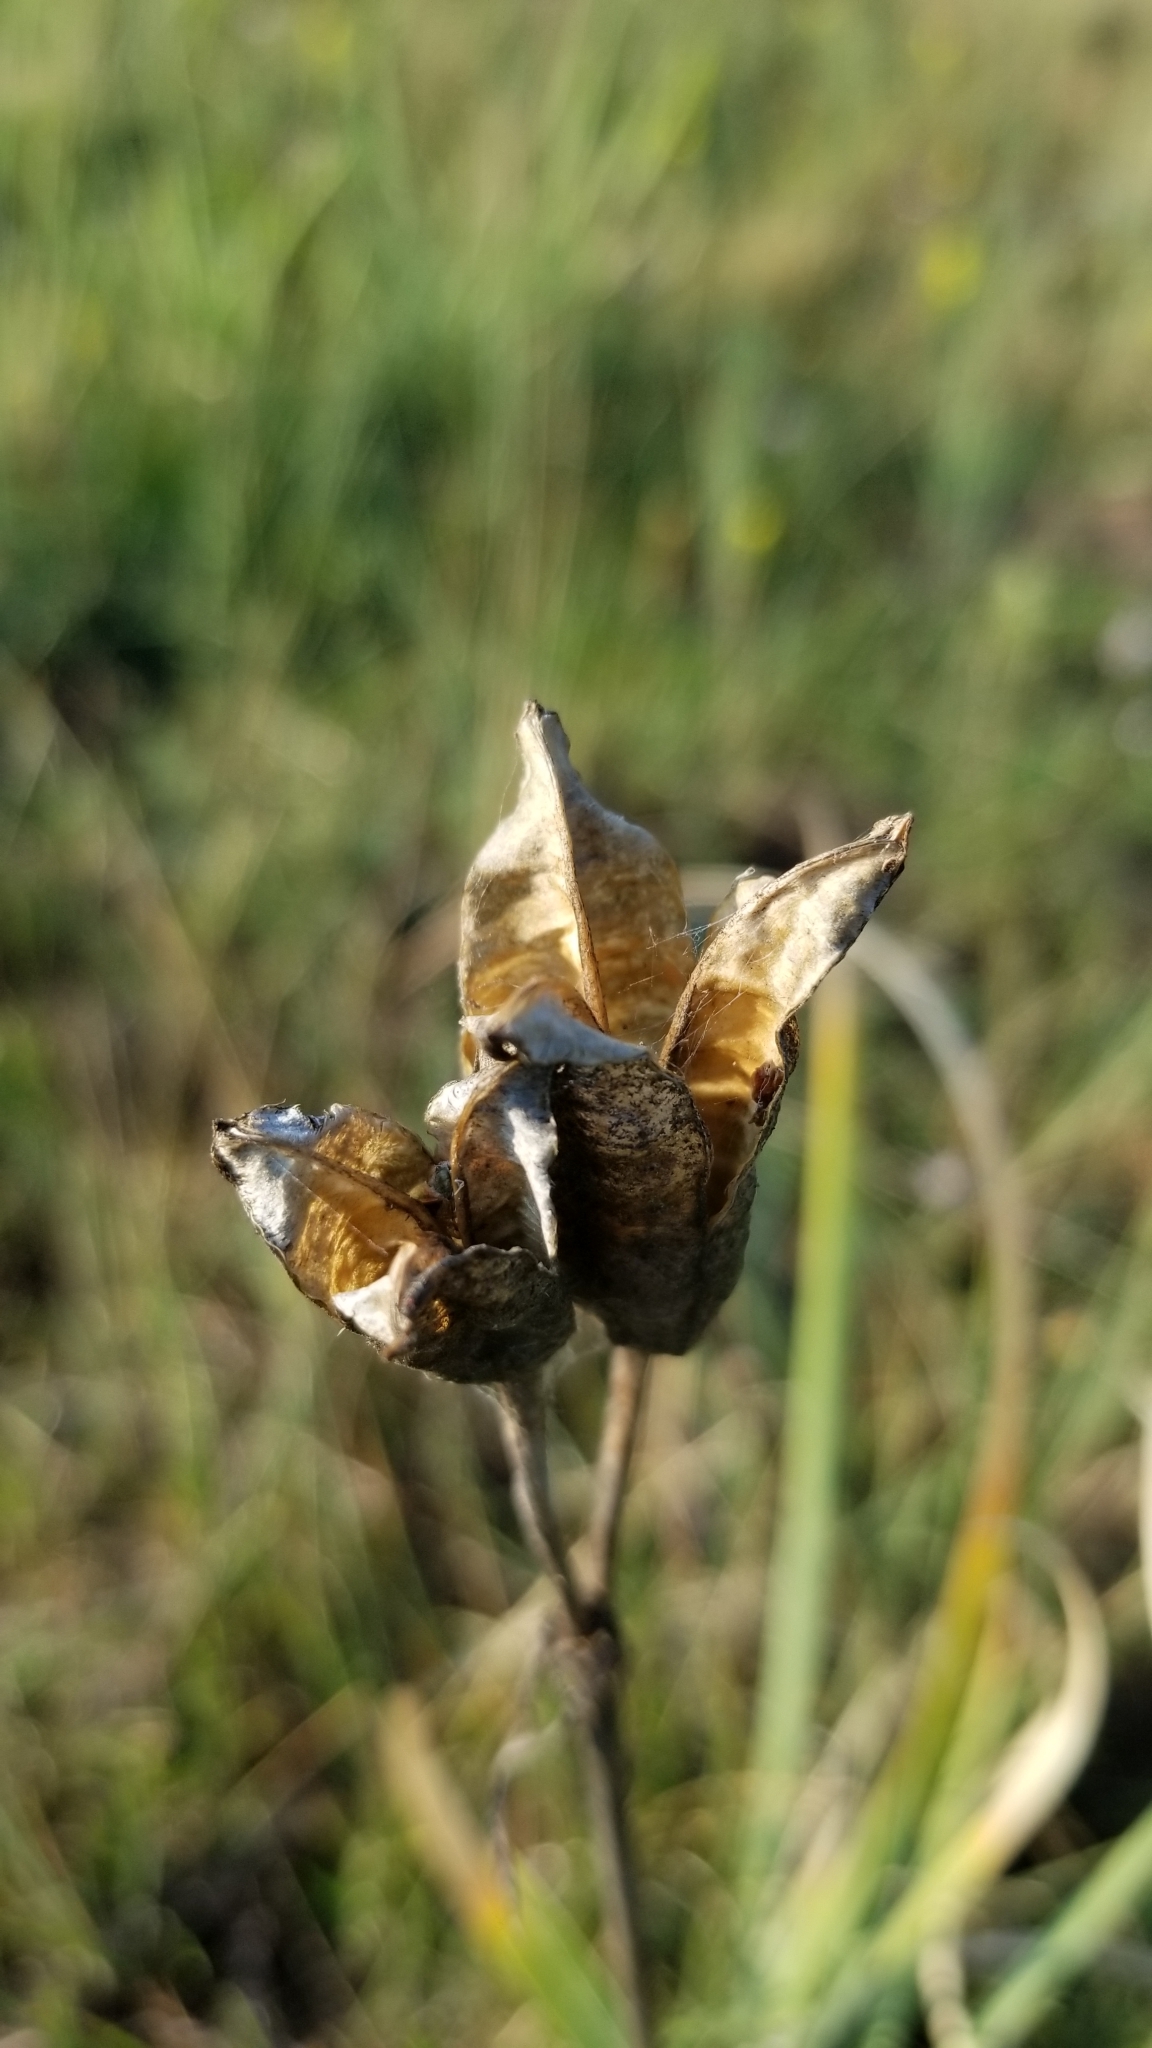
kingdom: Plantae
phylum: Tracheophyta
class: Liliopsida
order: Asparagales
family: Iridaceae
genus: Iris
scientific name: Iris missouriensis
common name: Rocky mountain iris
